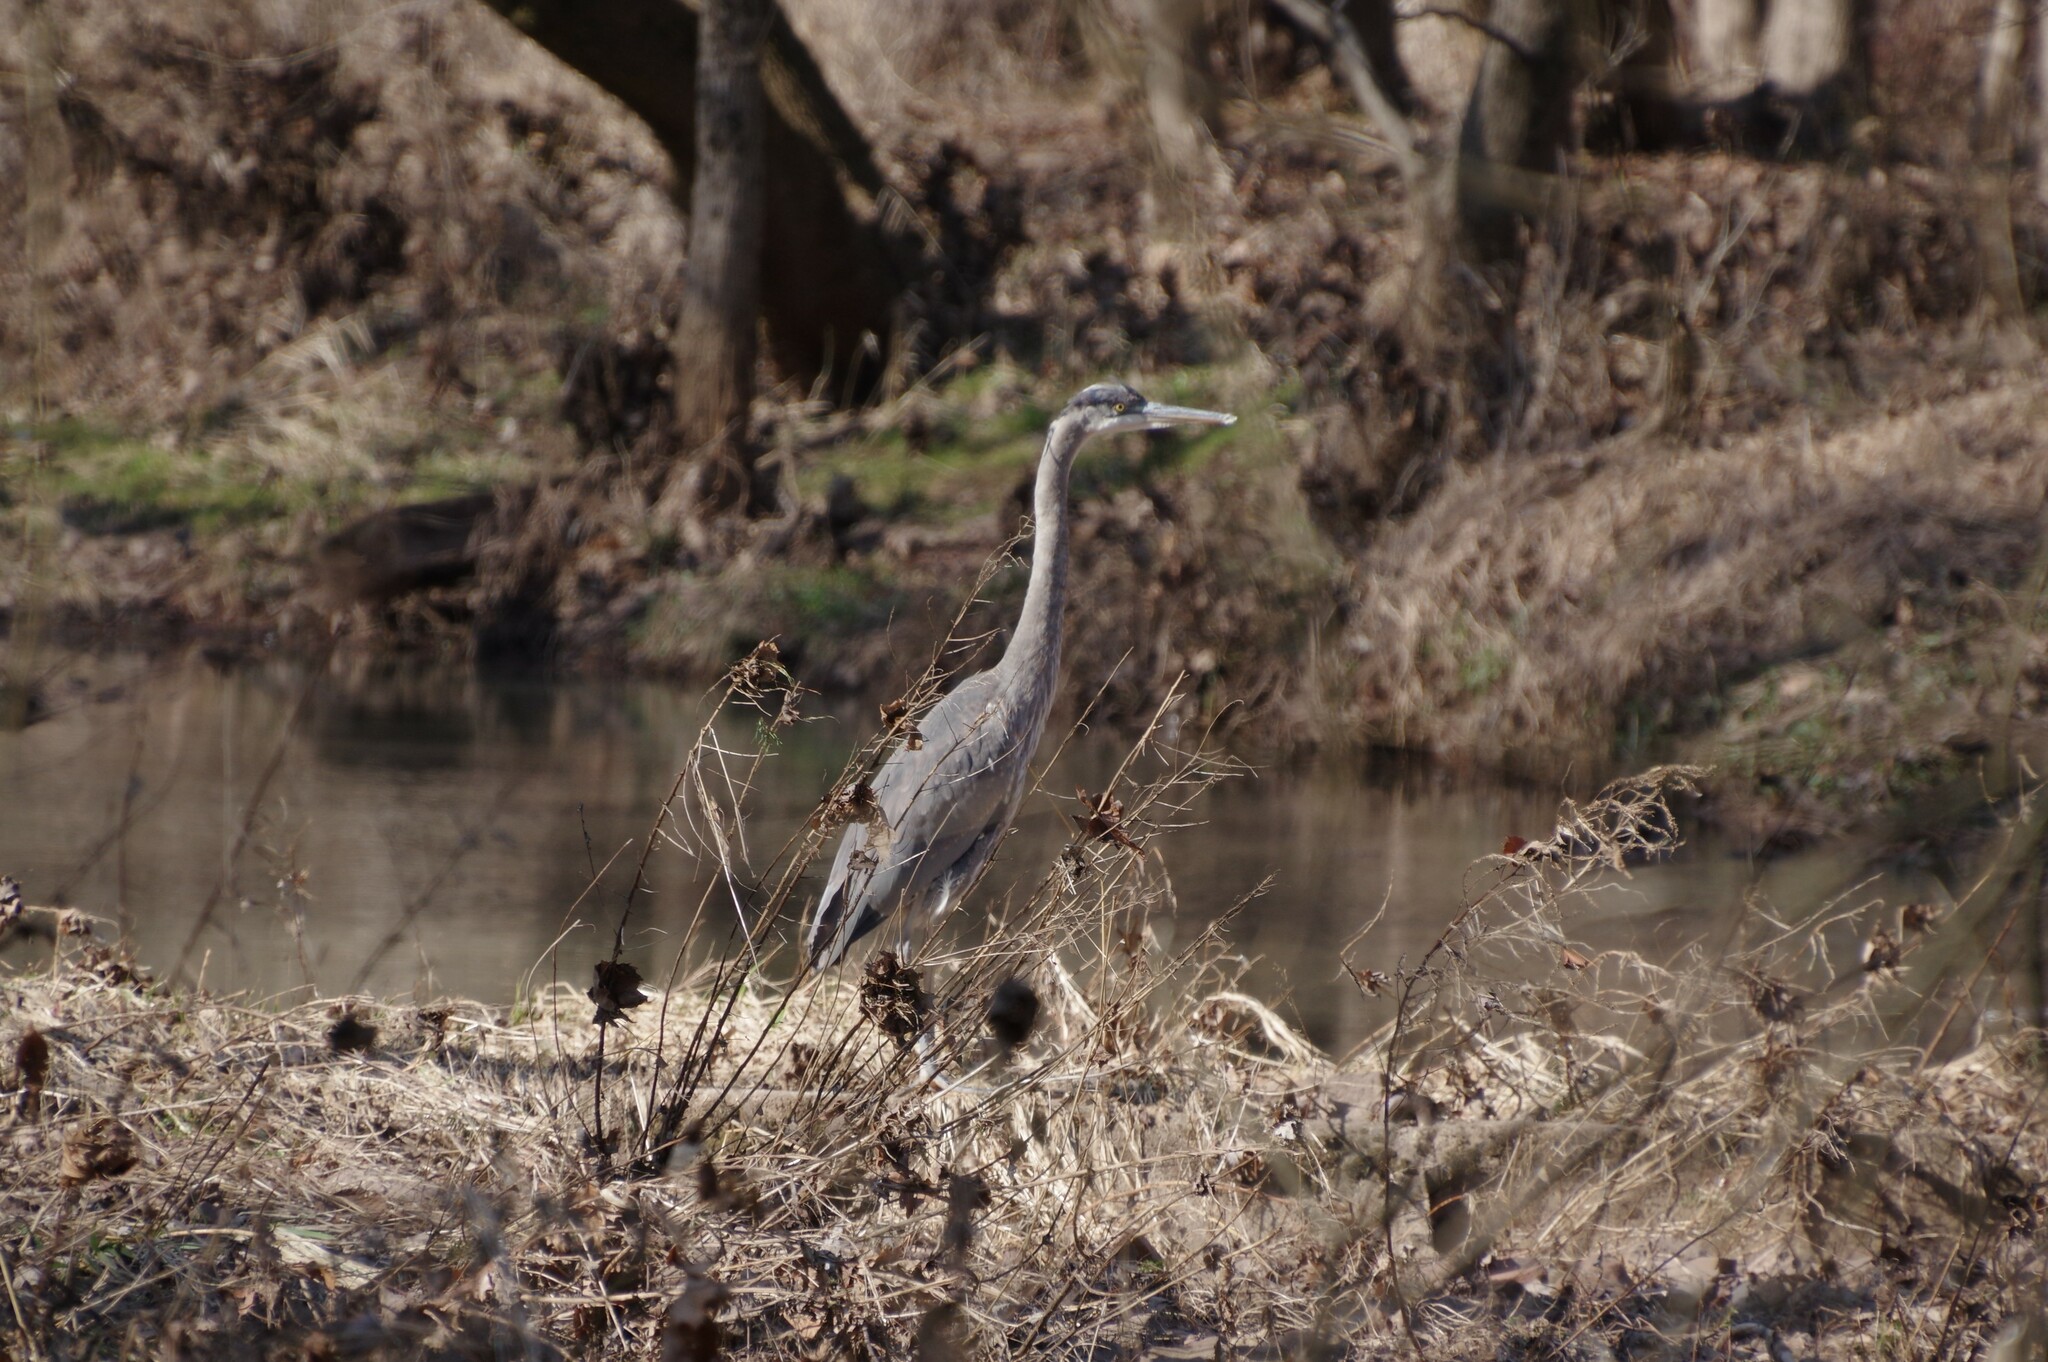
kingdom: Animalia
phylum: Chordata
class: Aves
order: Pelecaniformes
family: Ardeidae
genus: Ardea
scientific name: Ardea herodias
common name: Great blue heron
